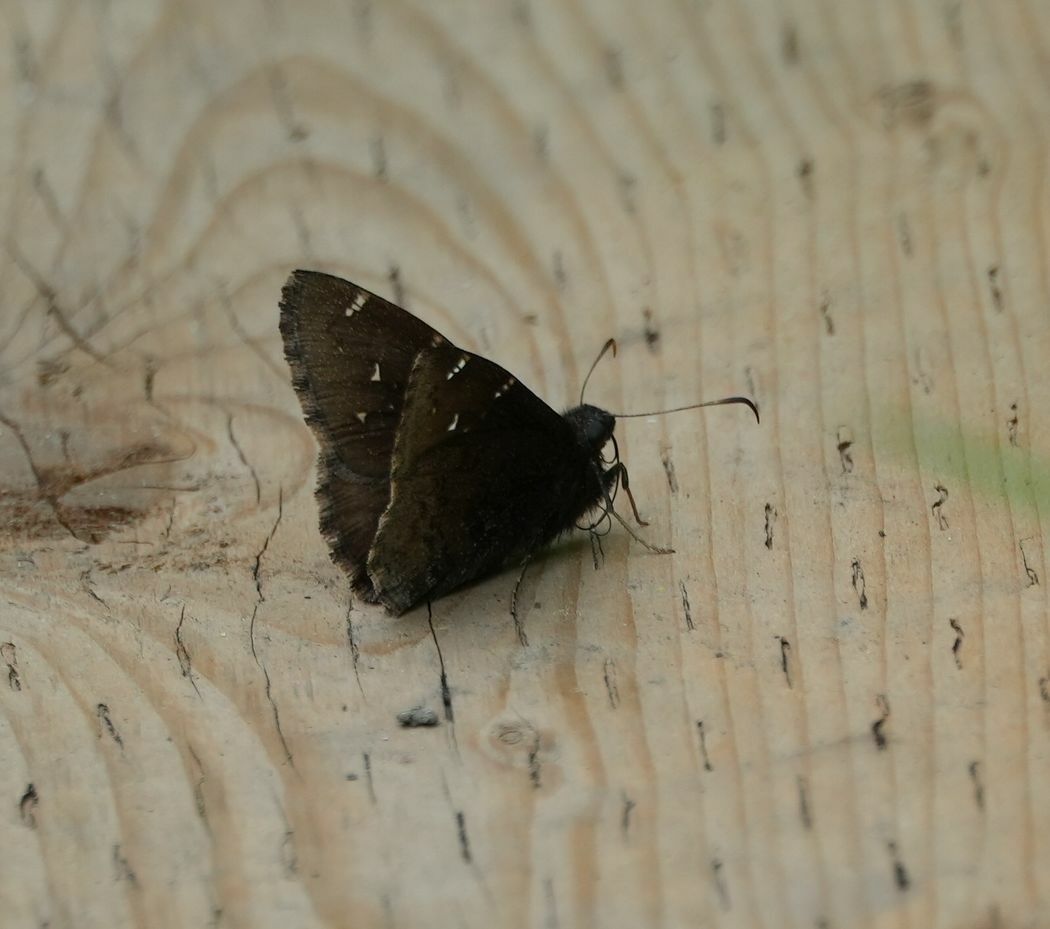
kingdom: Animalia
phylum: Arthropoda
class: Insecta
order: Lepidoptera
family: Hesperiidae
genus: Thorybes
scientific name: Thorybes pylades
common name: Northern cloudywing
